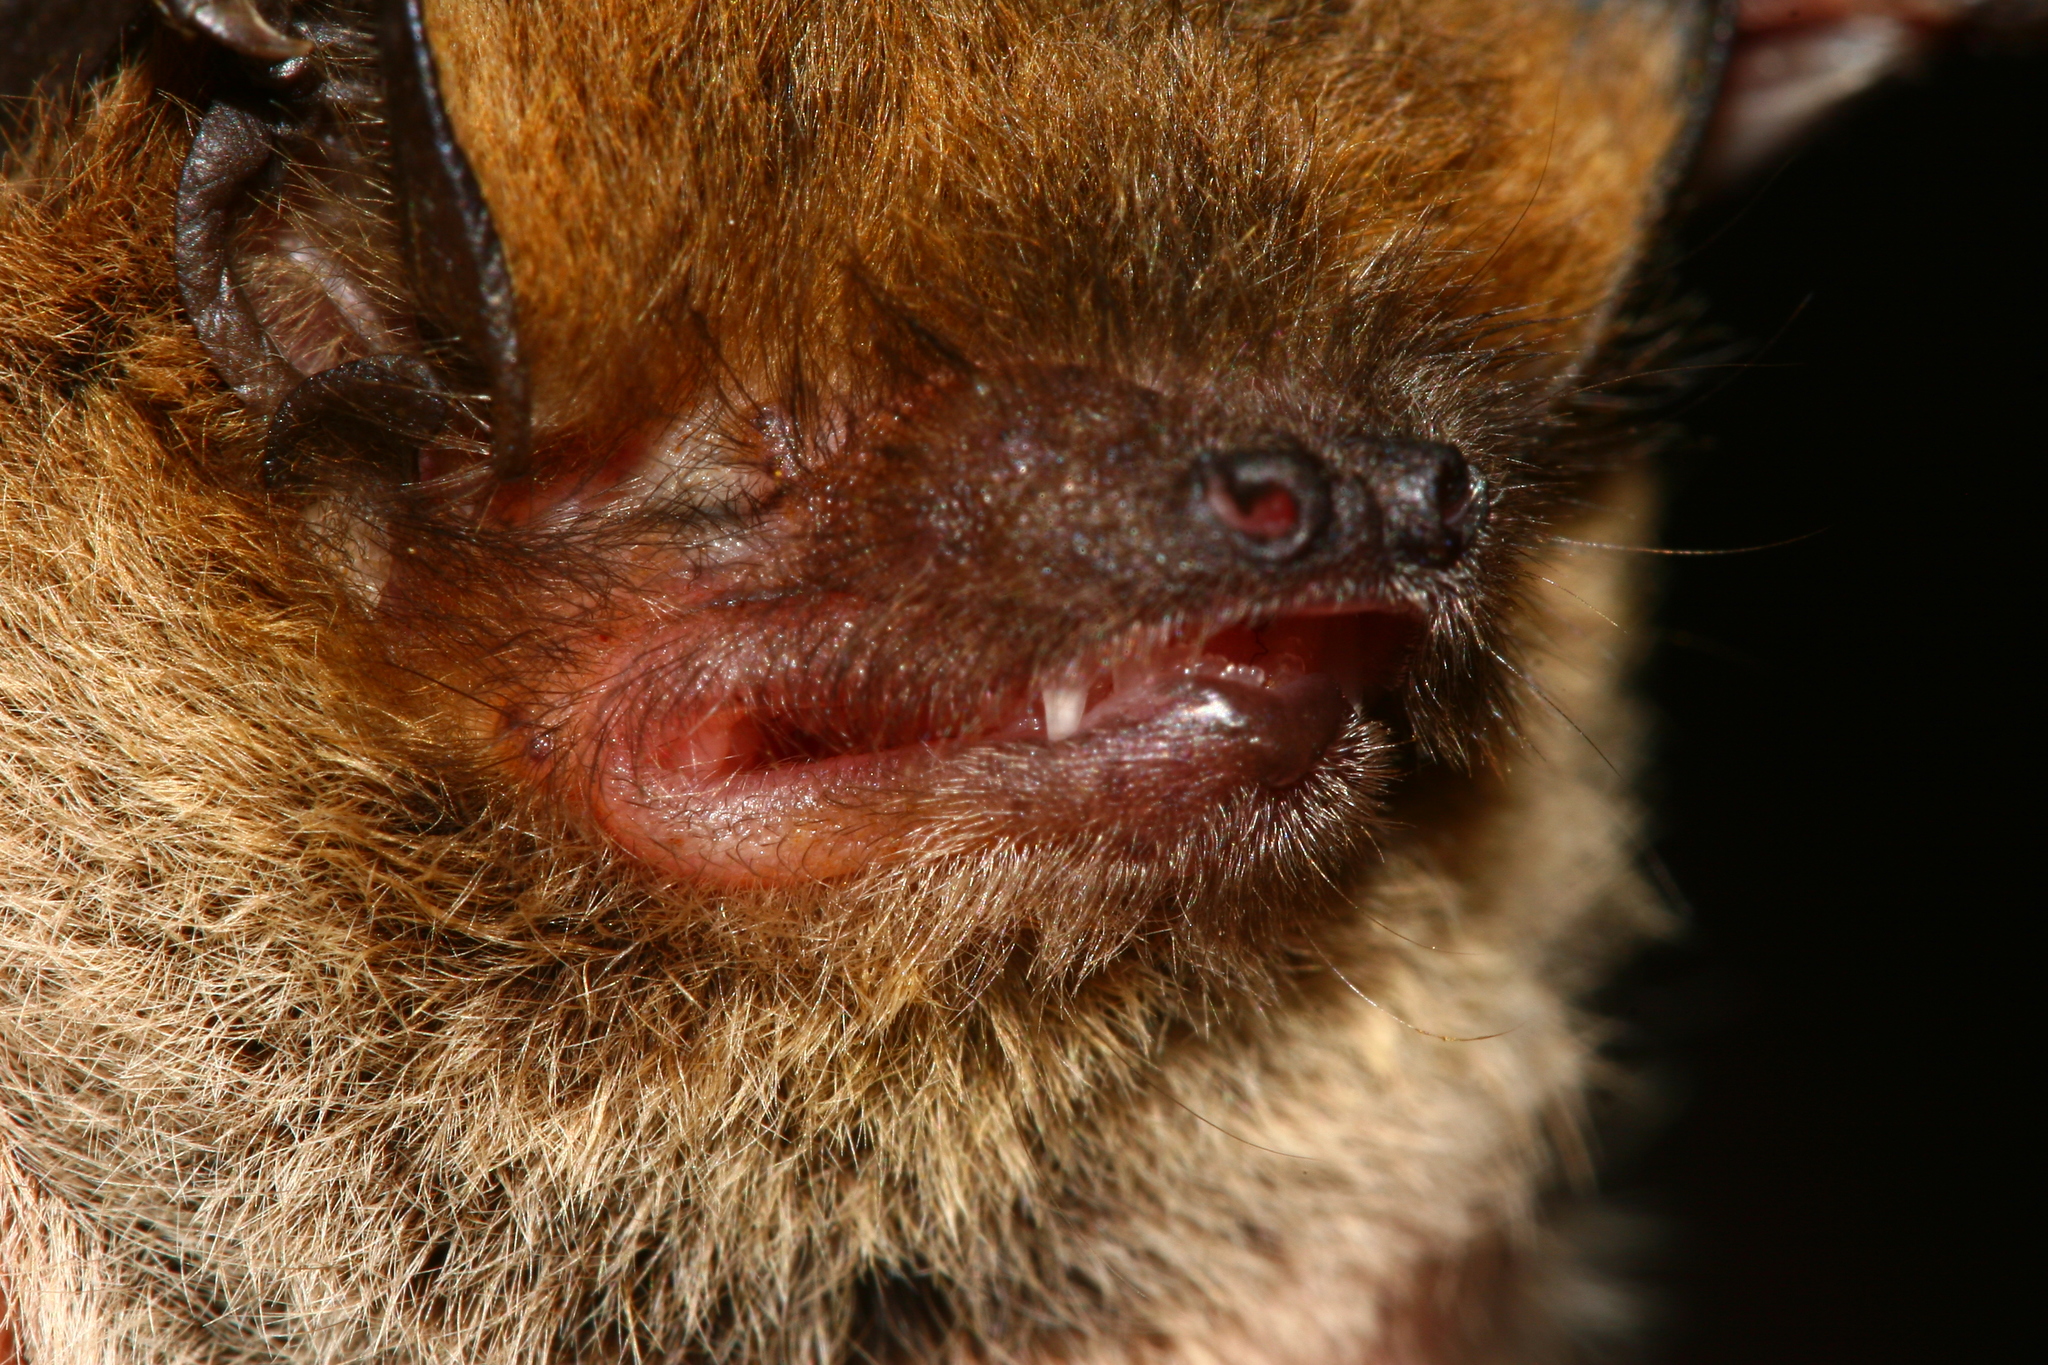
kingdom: Animalia
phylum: Chordata
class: Mammalia
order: Chiroptera
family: Vespertilionidae
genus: Pipistrellus
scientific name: Pipistrellus kuhlii
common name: Kuhl's pipistrelle
